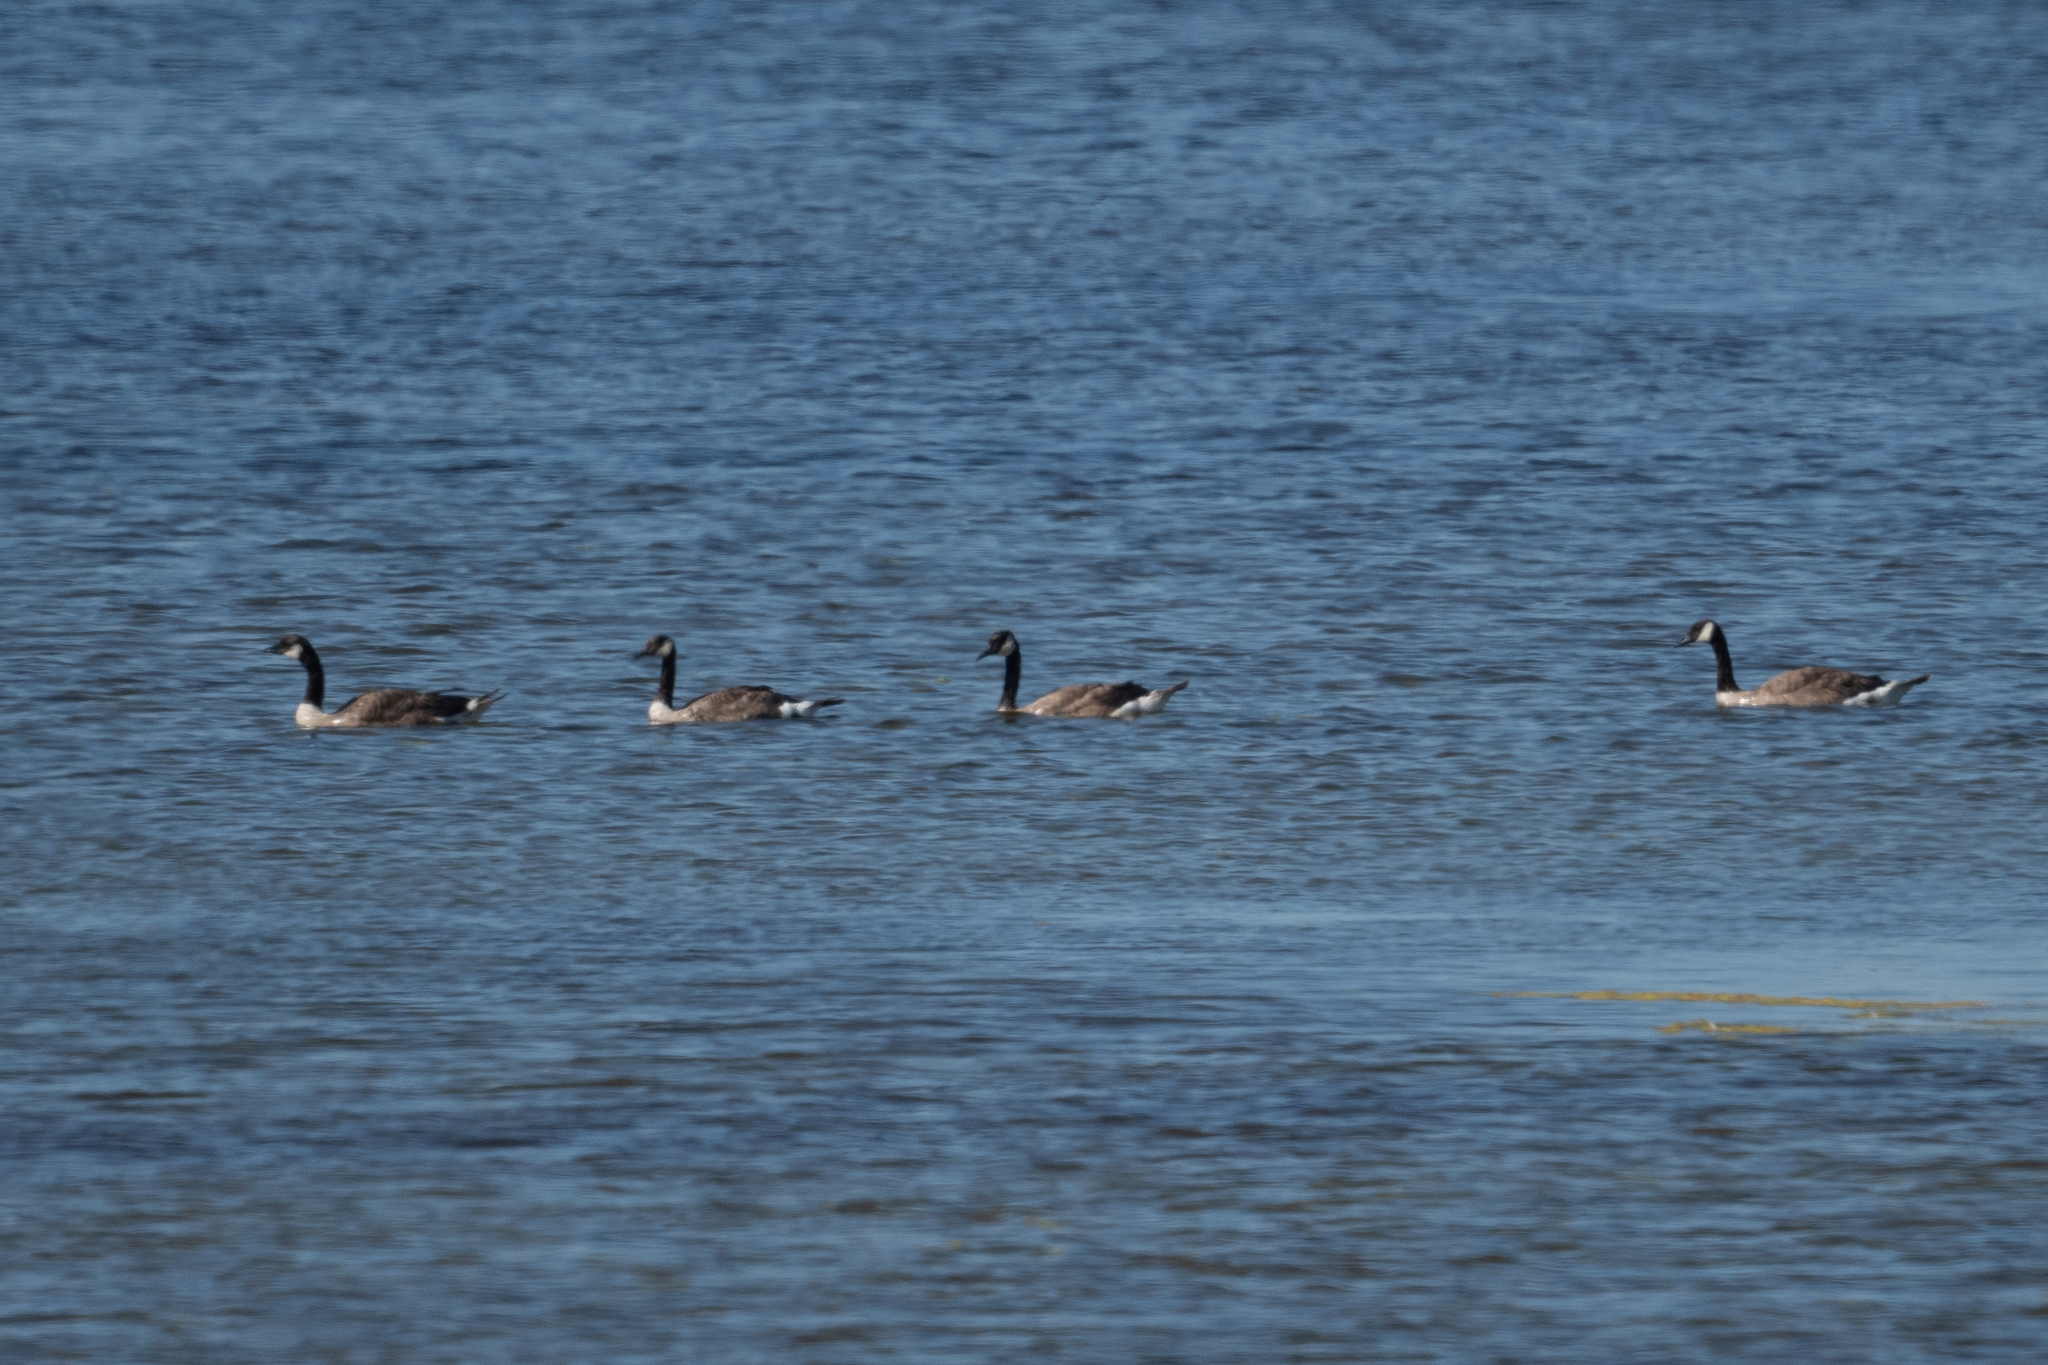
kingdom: Animalia
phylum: Chordata
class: Aves
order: Anseriformes
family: Anatidae
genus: Branta
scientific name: Branta canadensis
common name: Canada goose
